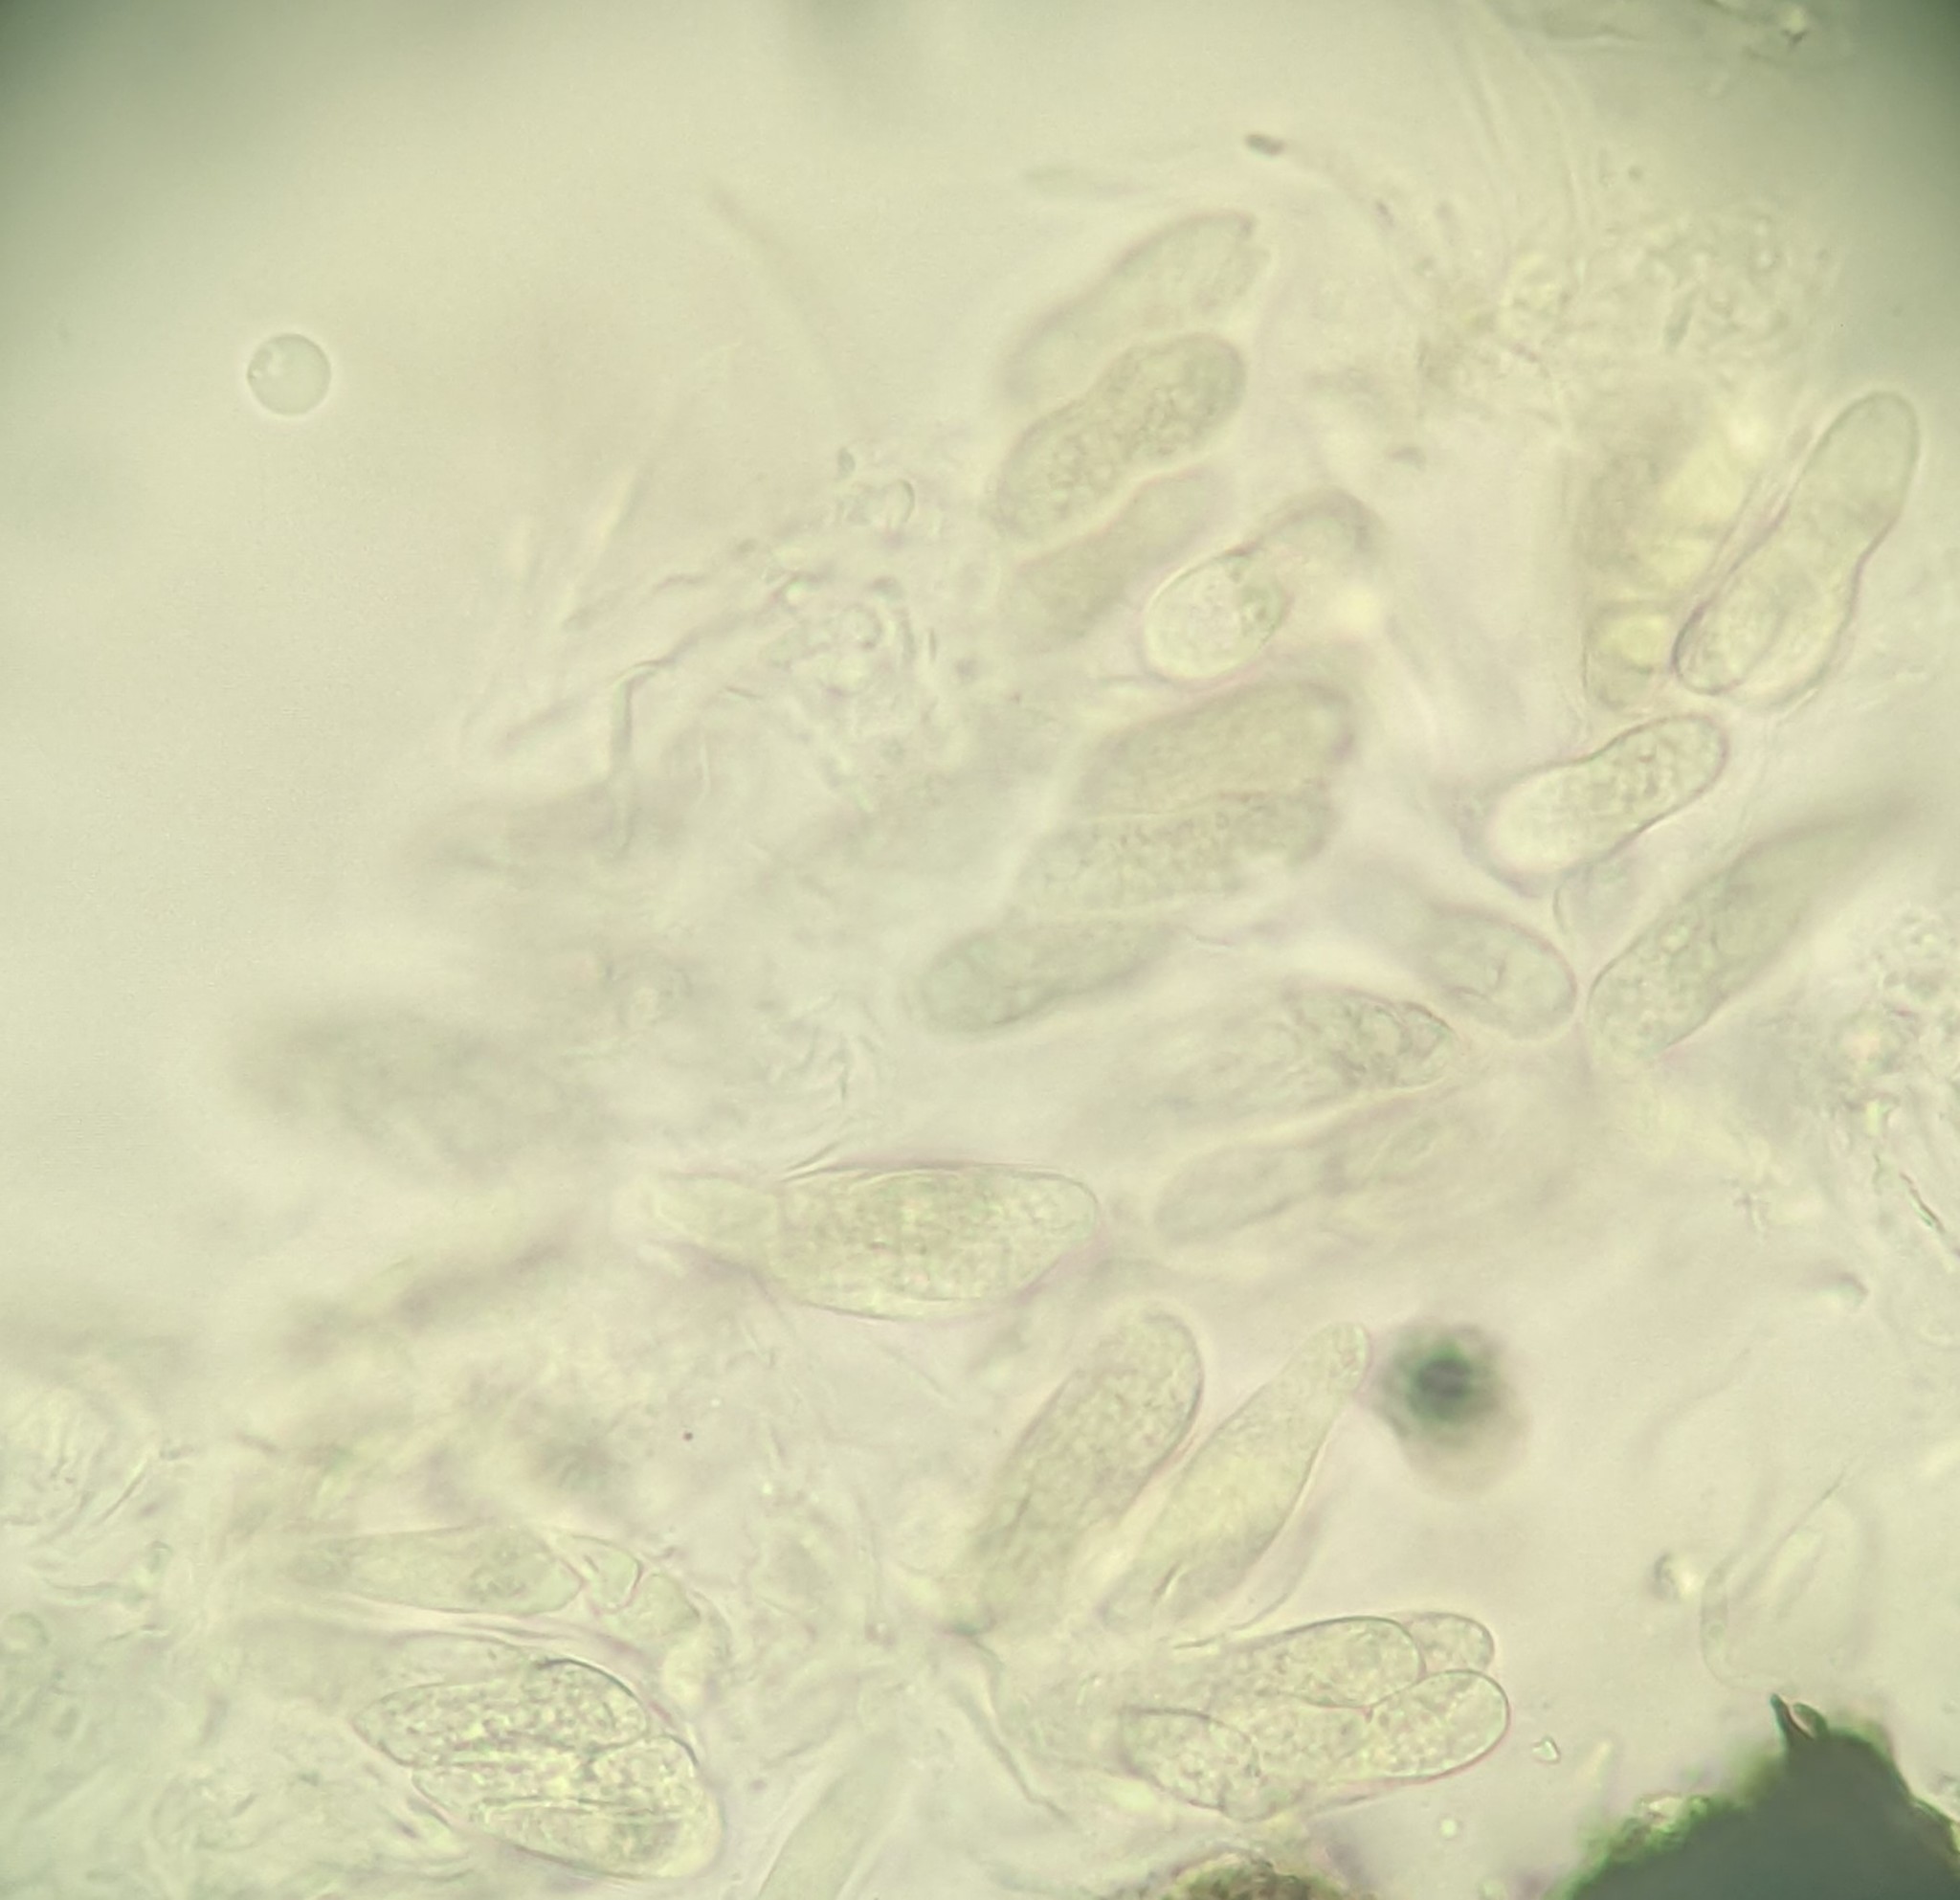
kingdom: Fungi
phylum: Ascomycota
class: Sordariomycetes
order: Meliolales
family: Armatellaceae
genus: Armatella
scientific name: Armatella litseae
